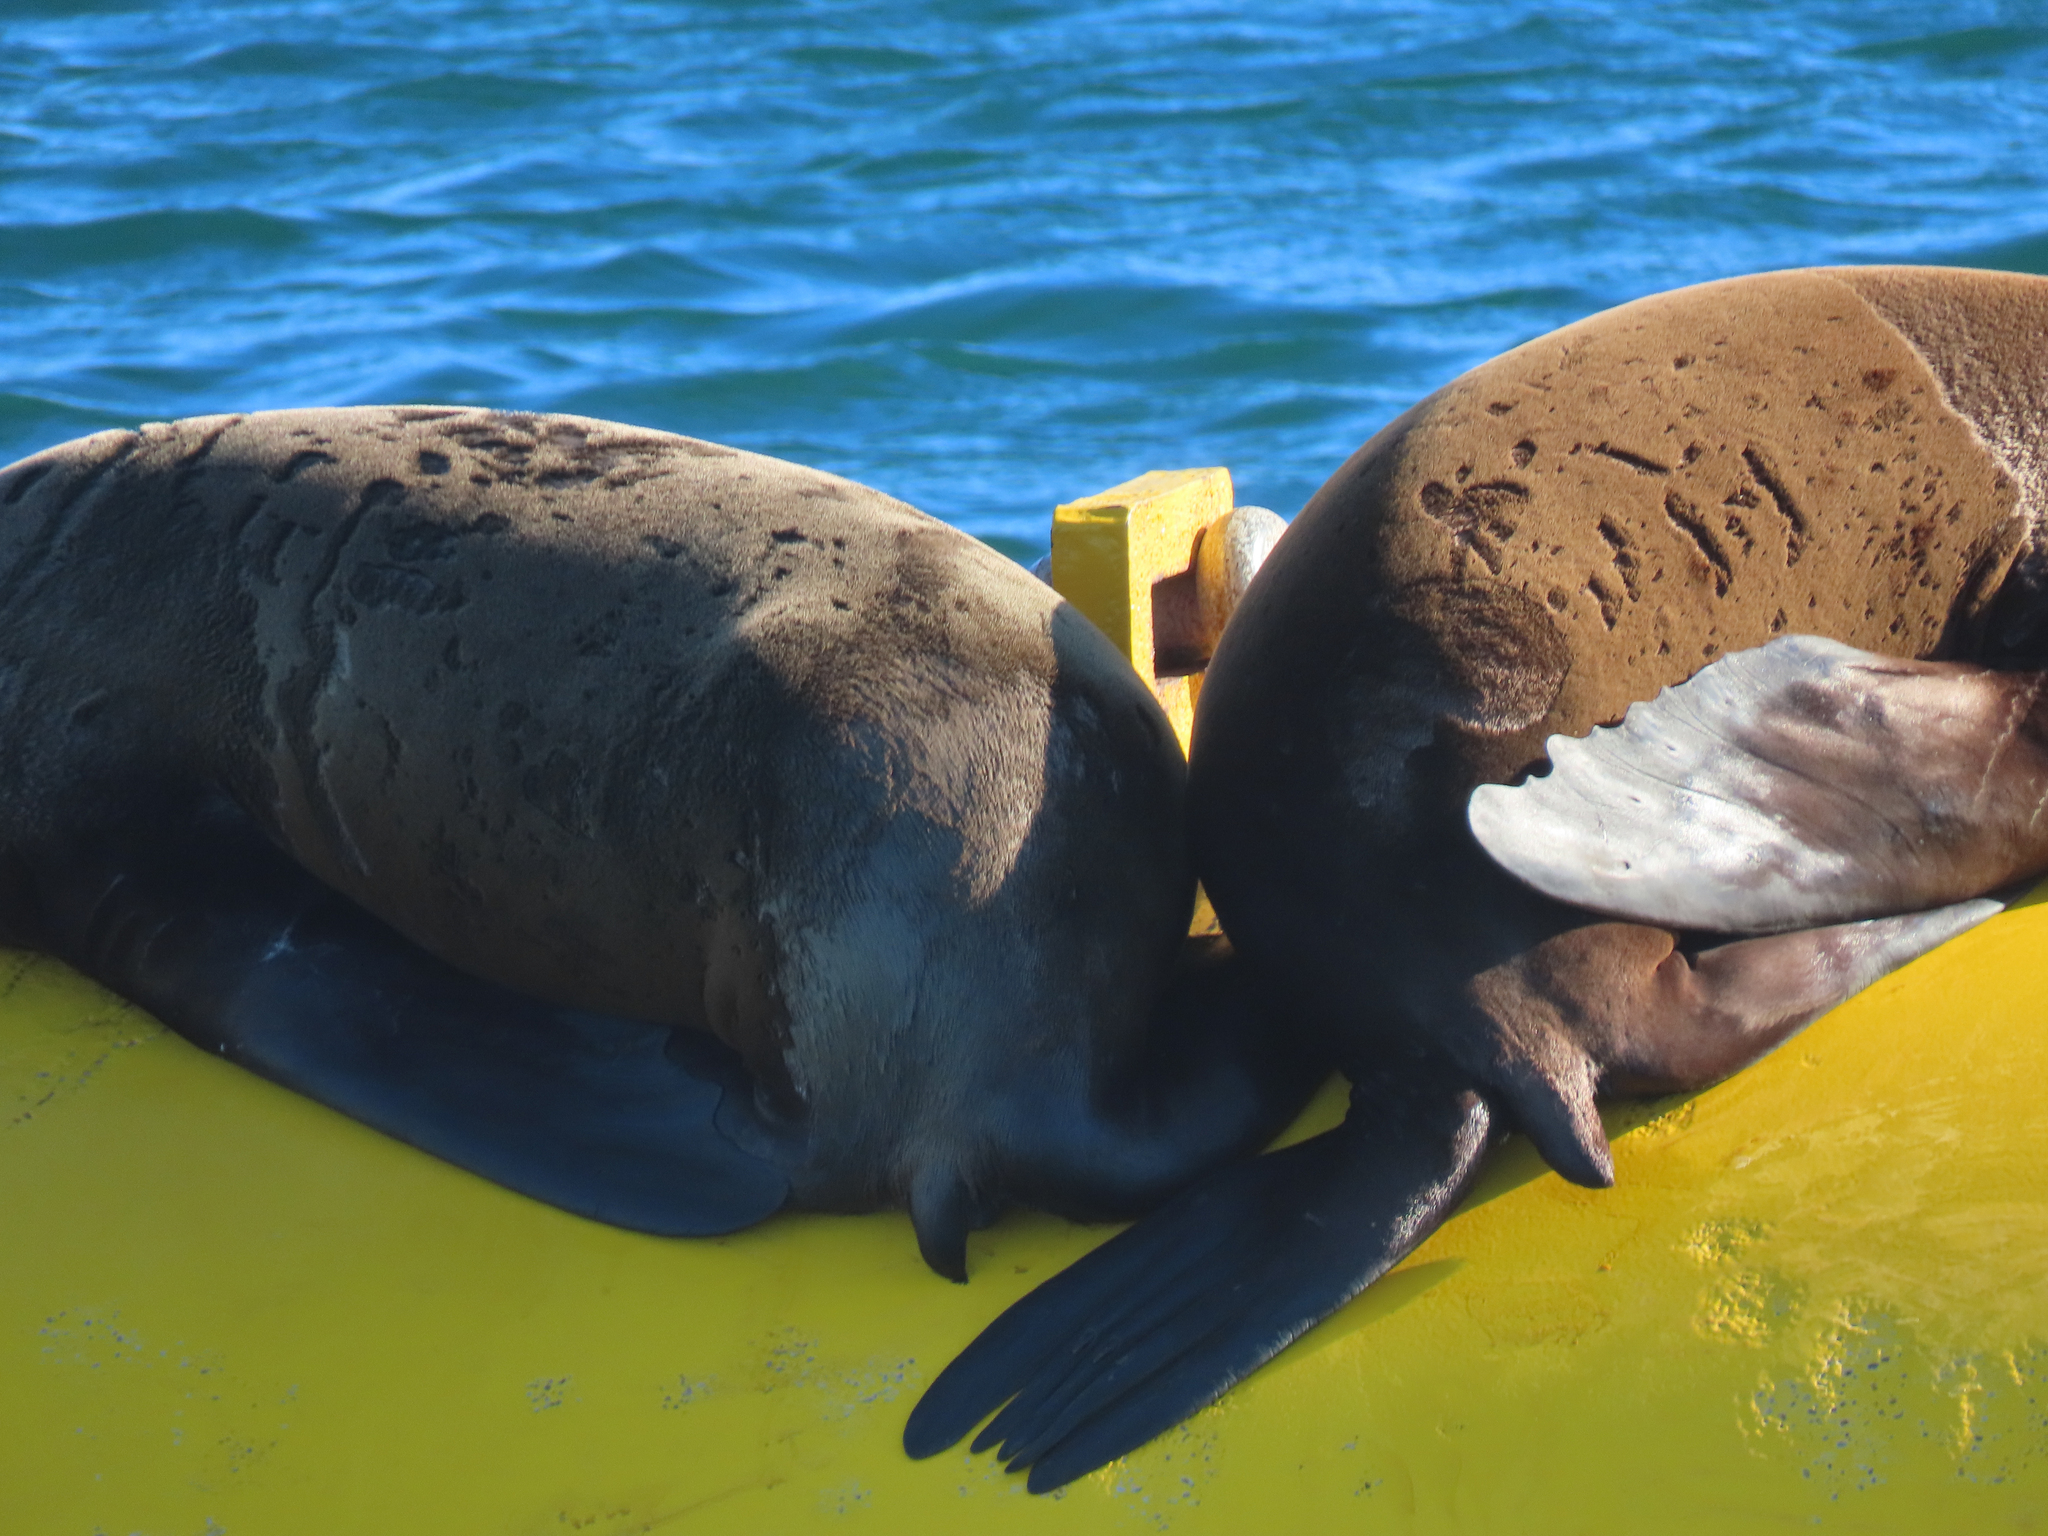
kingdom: Animalia
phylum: Chordata
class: Mammalia
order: Carnivora
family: Otariidae
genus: Zalophus
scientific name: Zalophus californianus
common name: California sea lion
